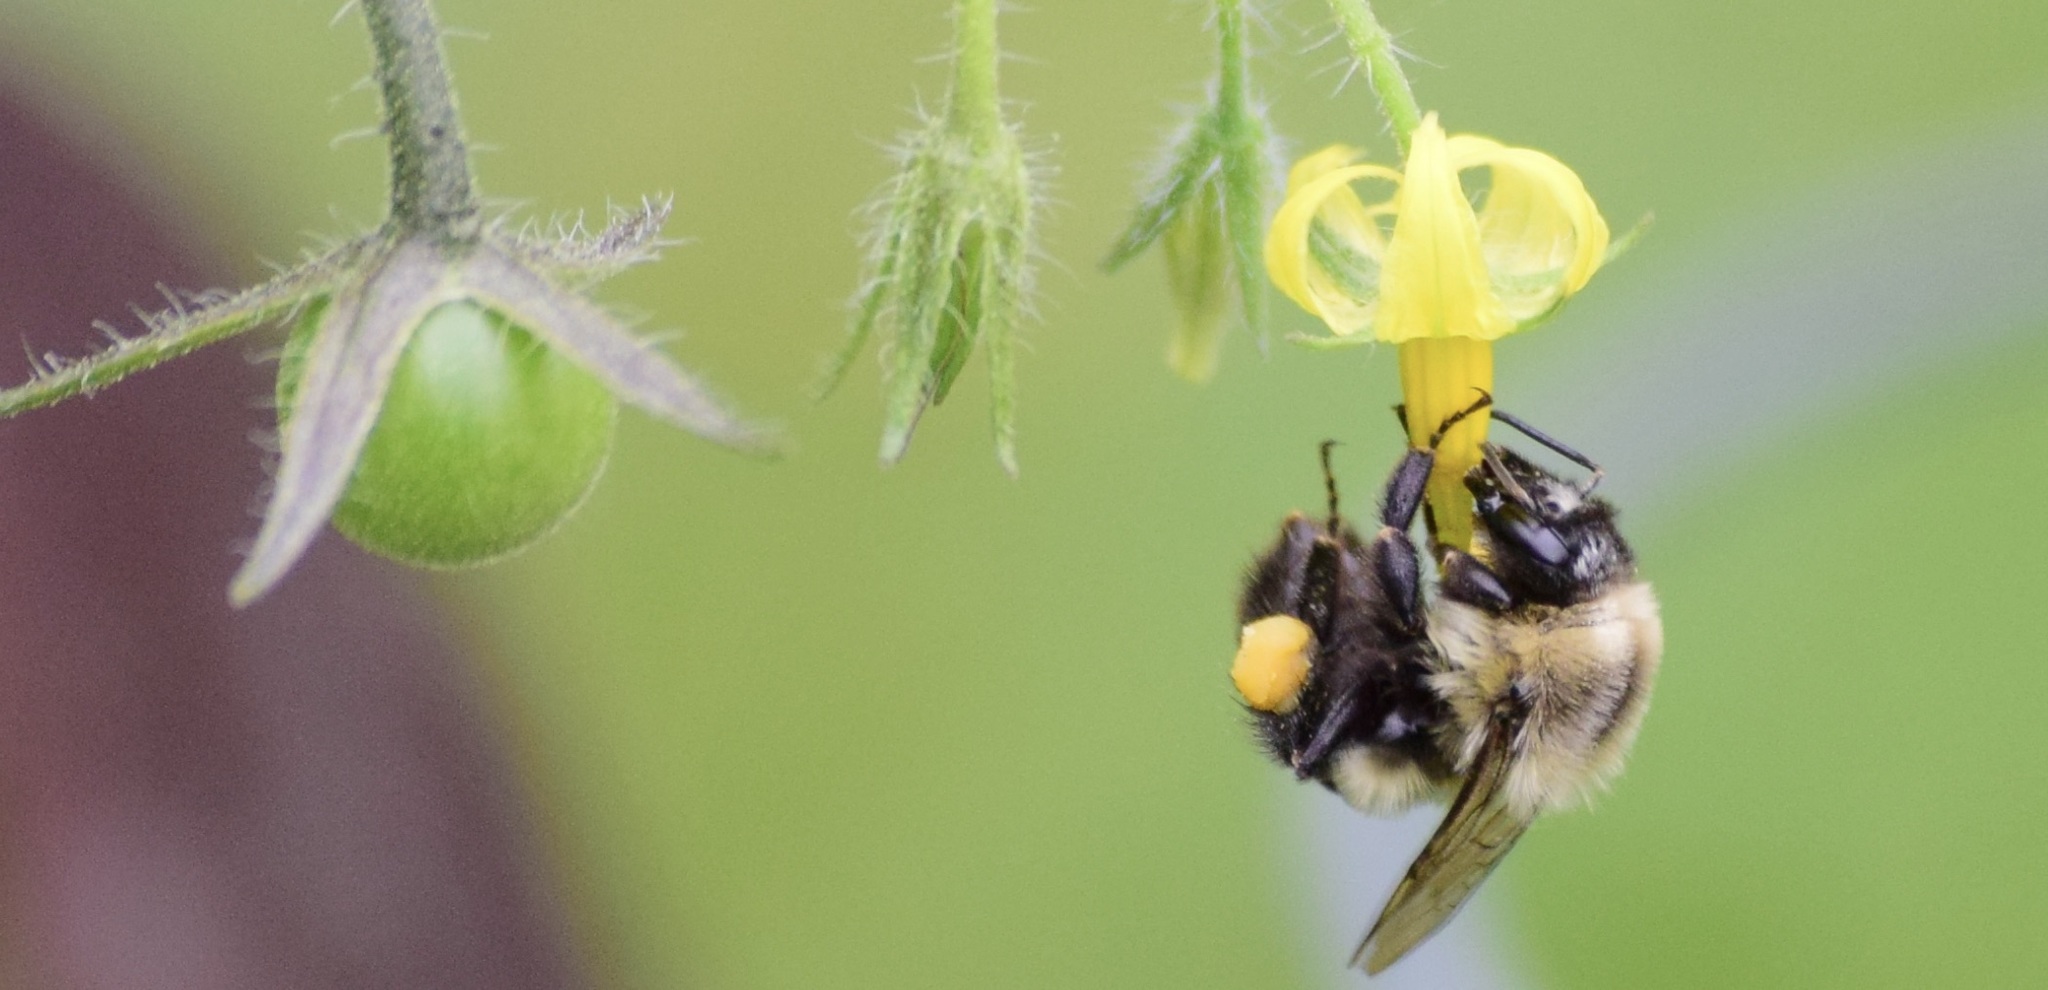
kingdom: Animalia
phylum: Arthropoda
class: Insecta
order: Hymenoptera
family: Apidae
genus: Bombus
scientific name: Bombus impatiens
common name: Common eastern bumble bee
